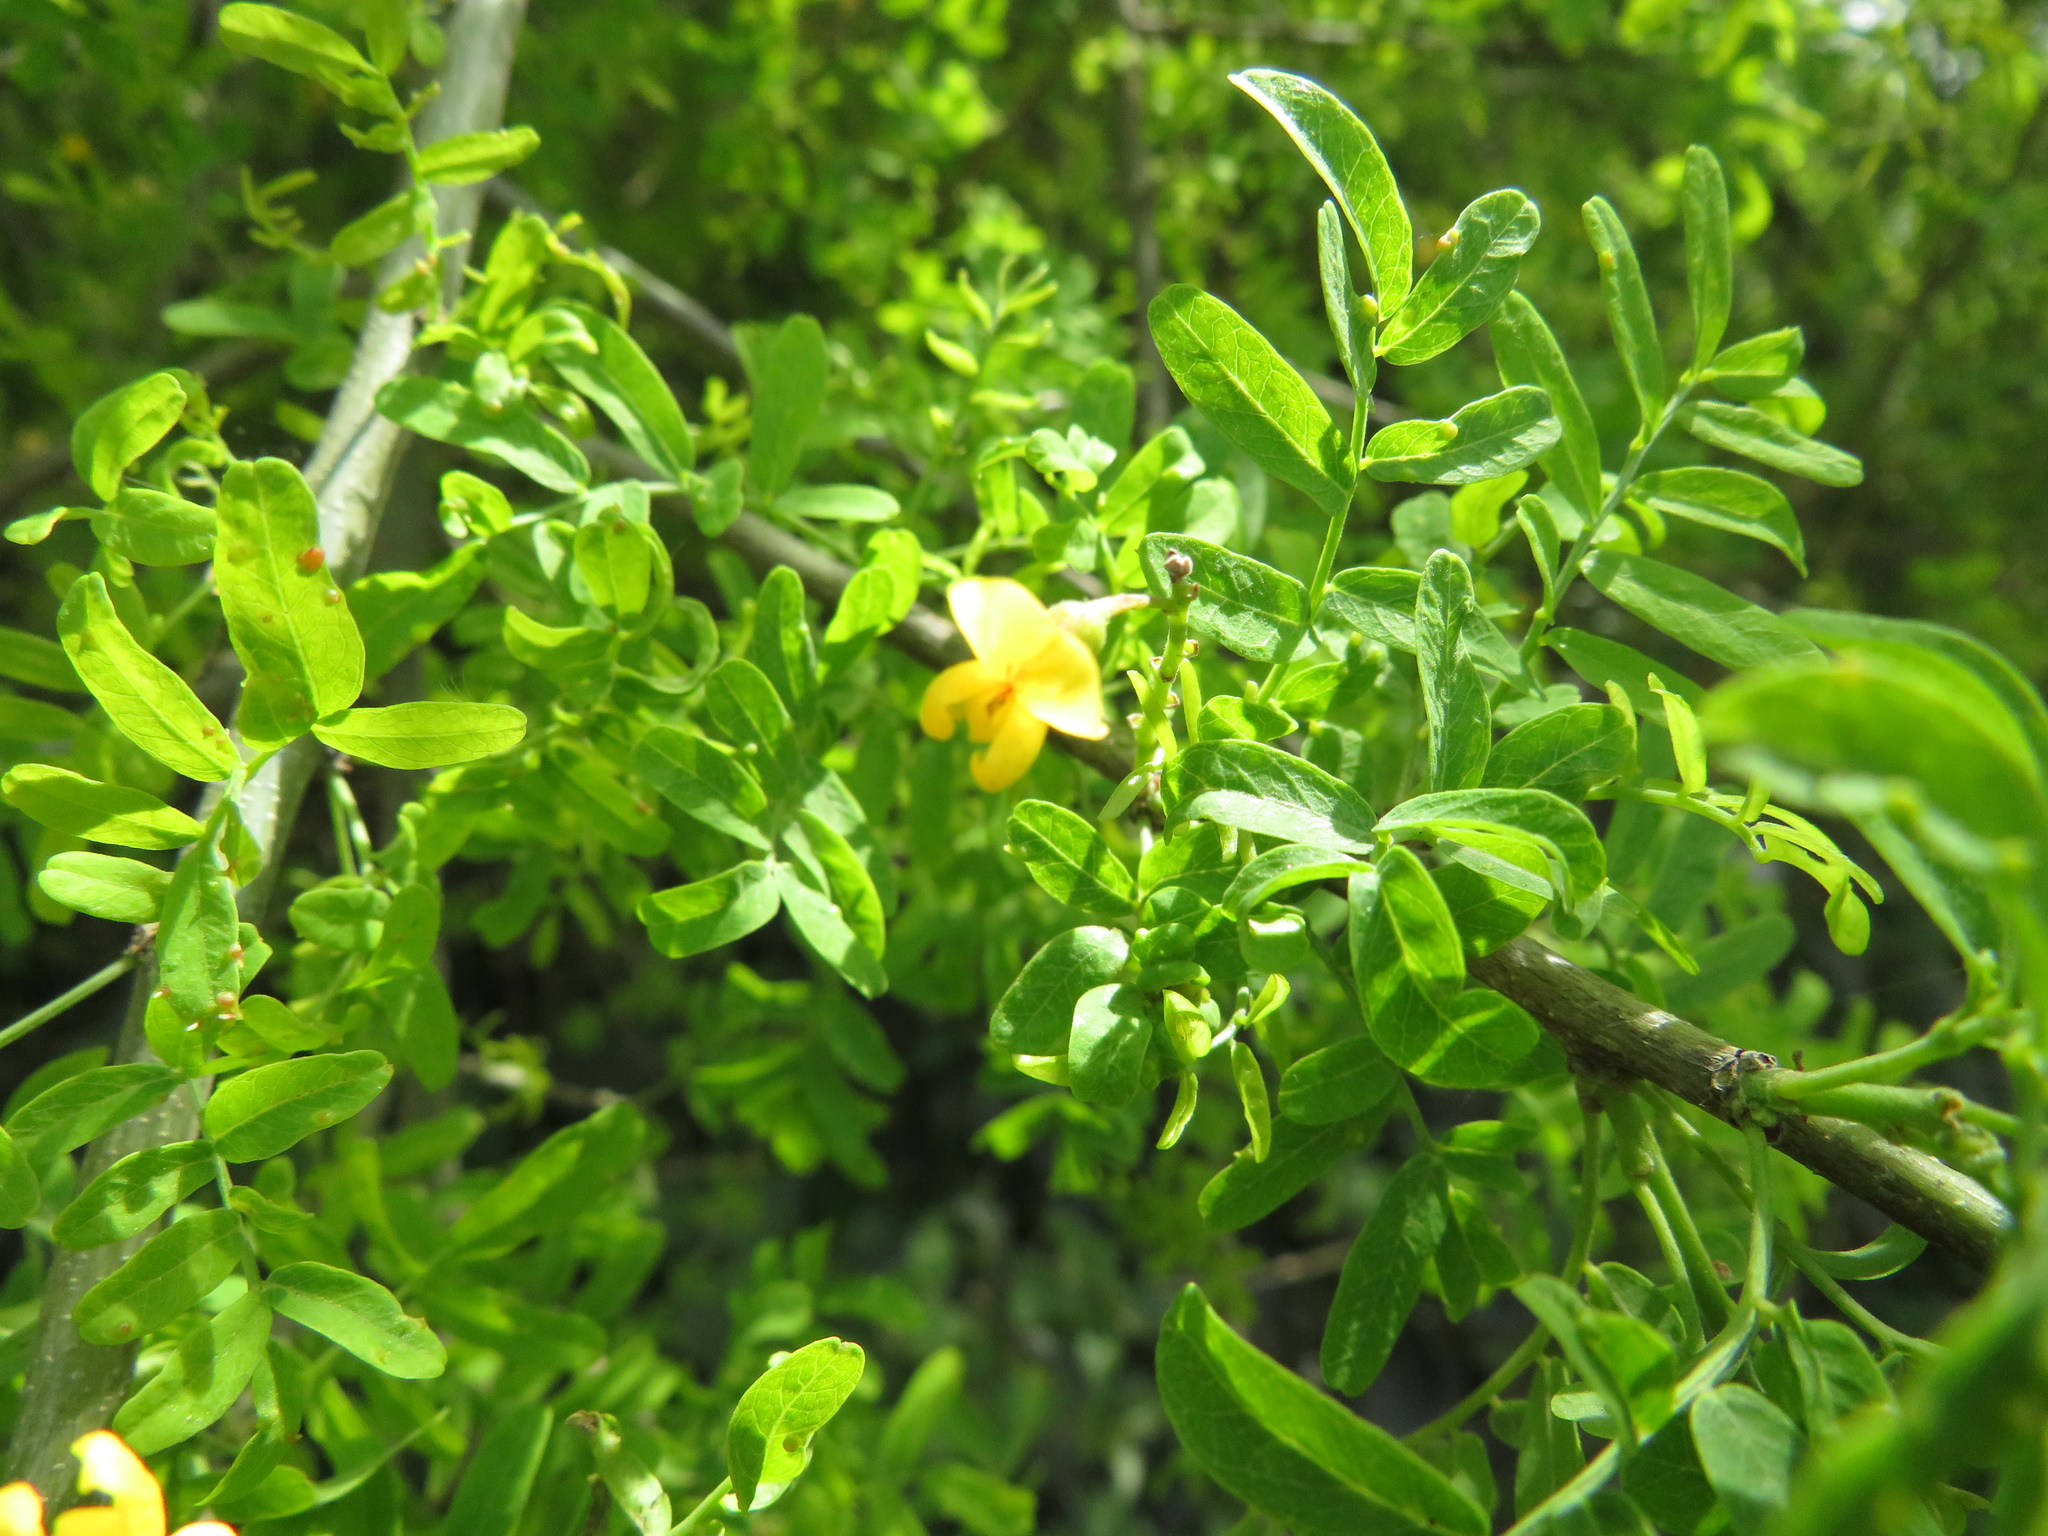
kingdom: Plantae
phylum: Tracheophyta
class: Magnoliopsida
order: Fabales
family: Fabaceae
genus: Geoffroea
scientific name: Geoffroea decorticans
